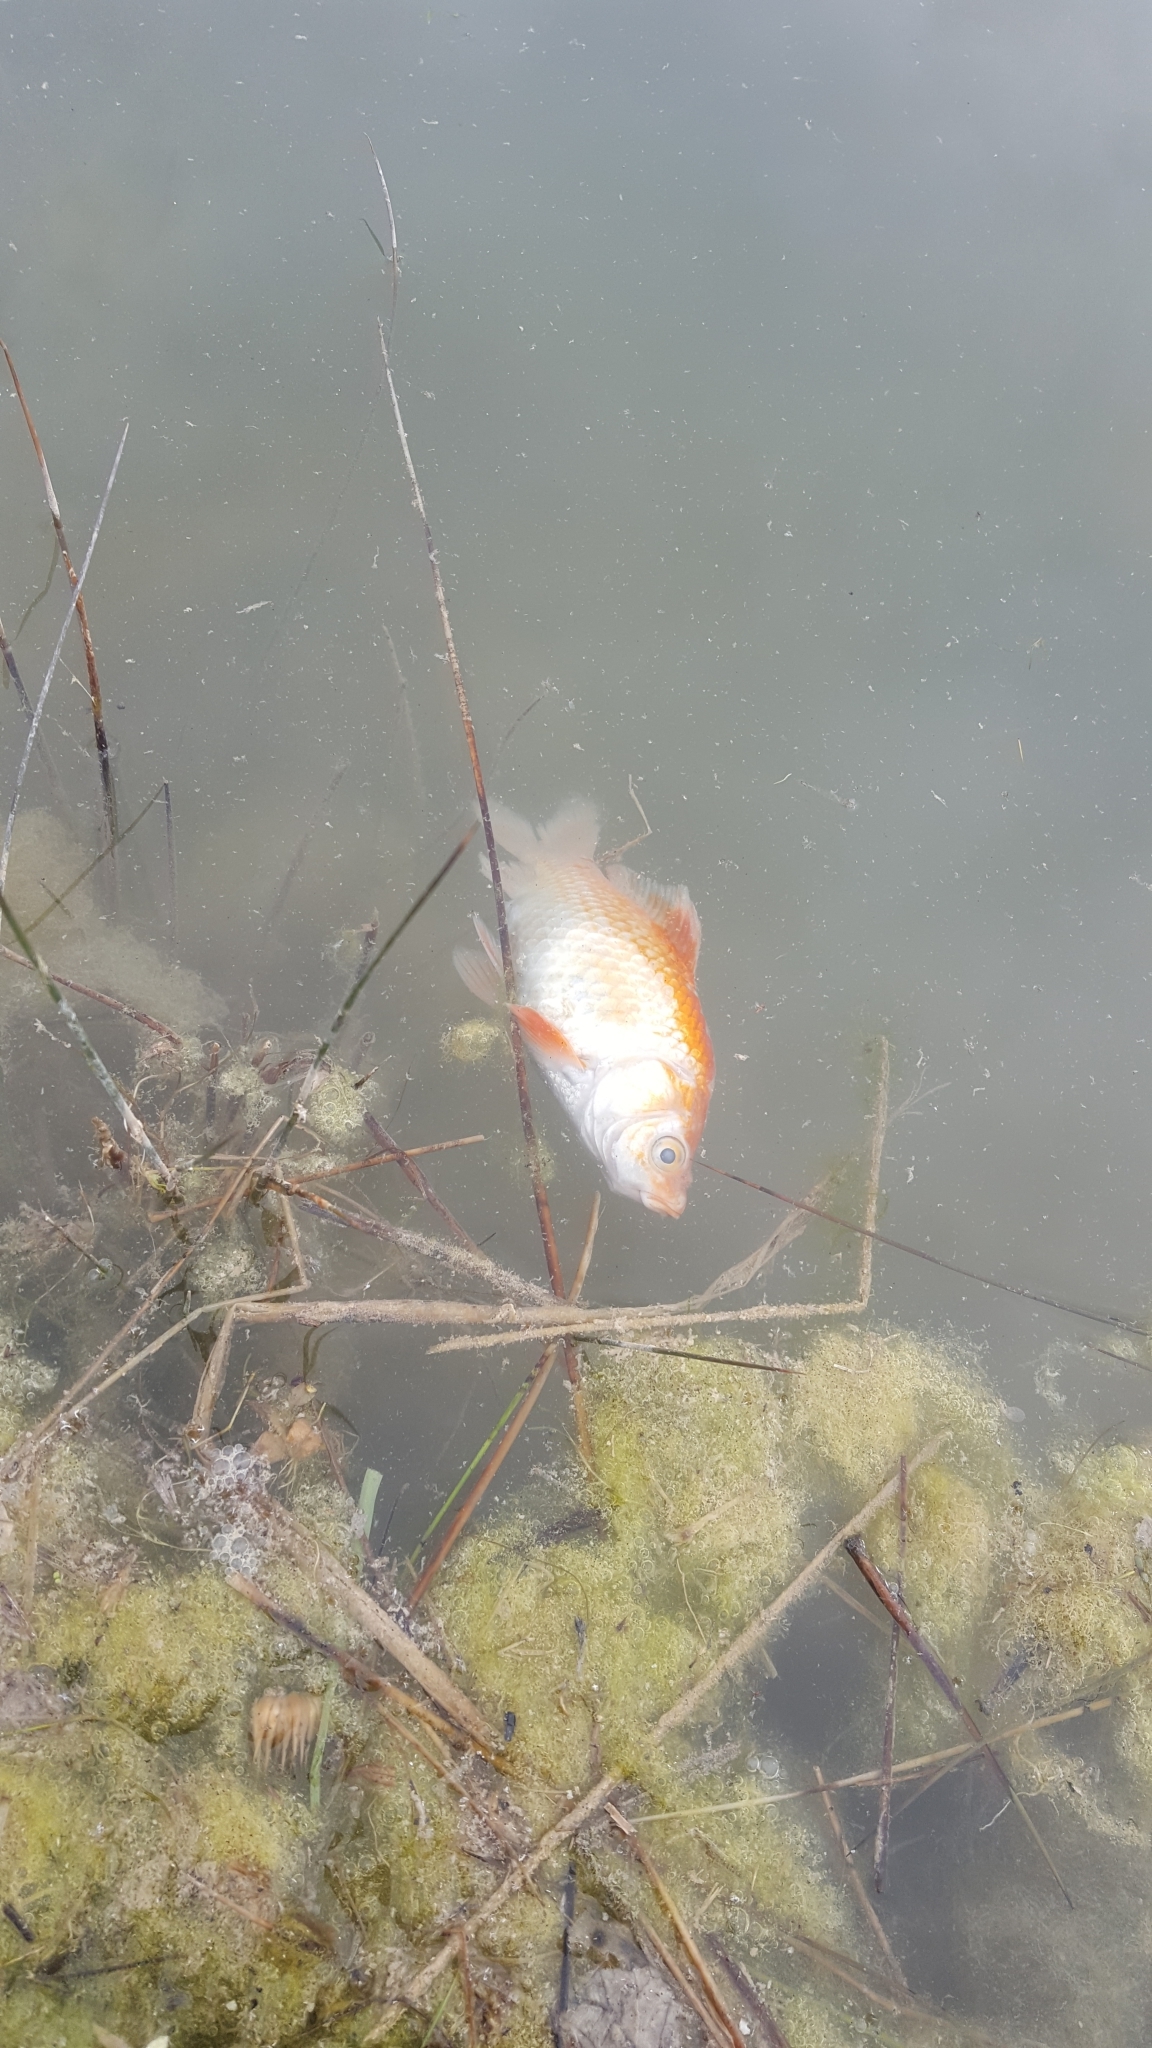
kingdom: Animalia
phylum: Chordata
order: Cypriniformes
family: Cyprinidae
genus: Carassius
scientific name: Carassius auratus
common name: Goldfish
